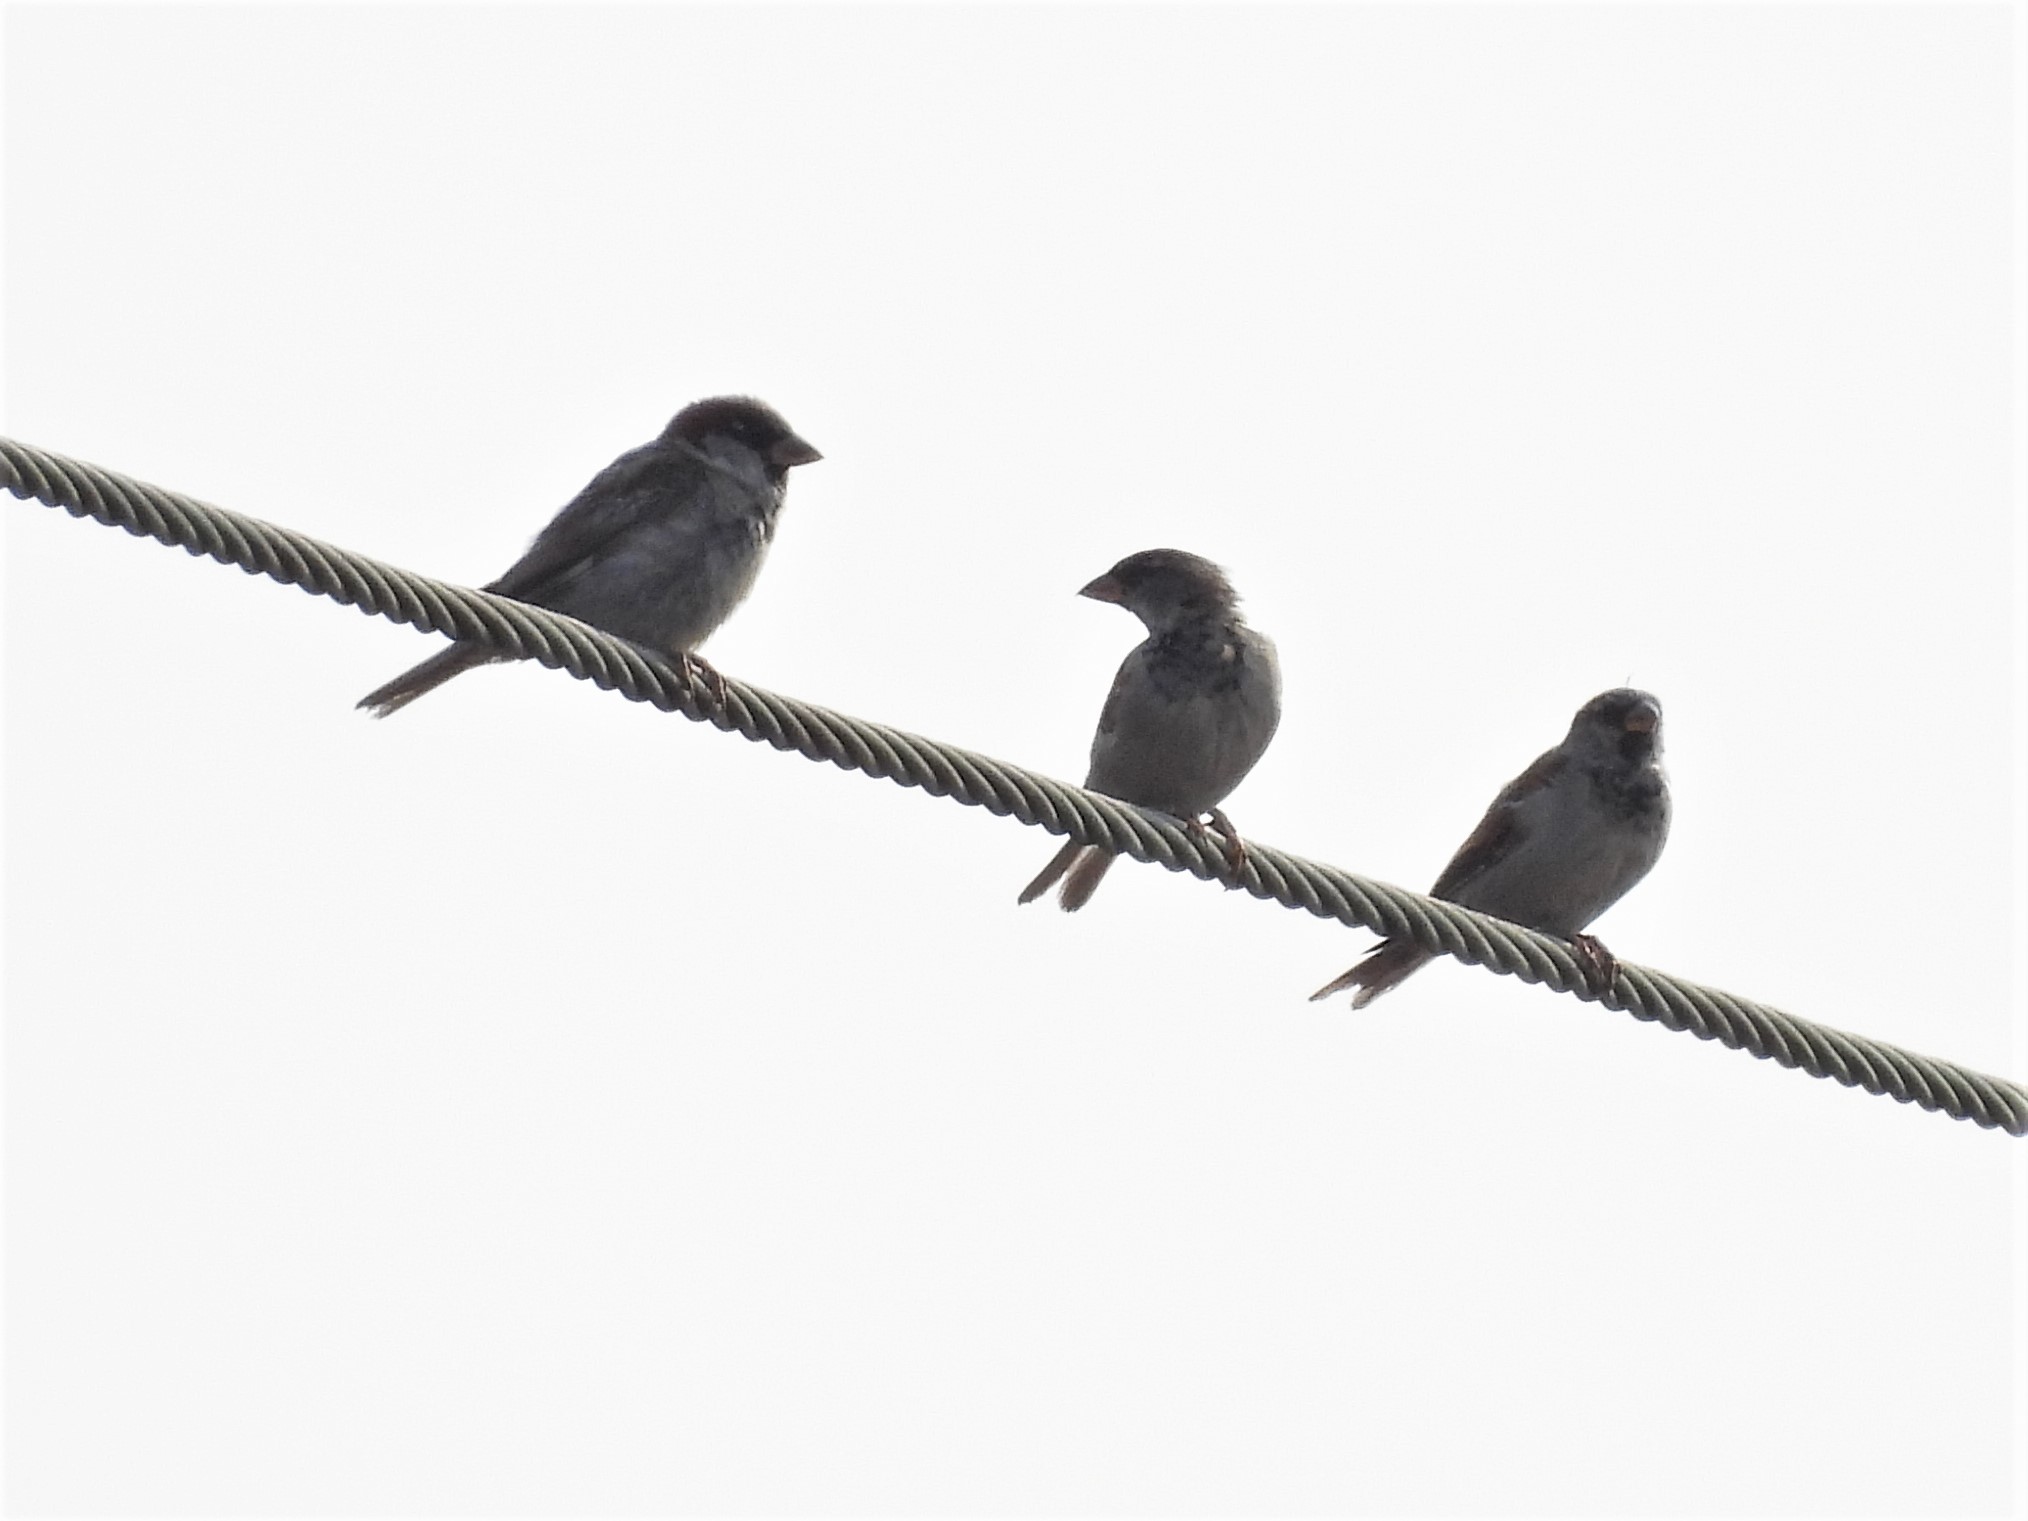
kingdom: Animalia
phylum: Chordata
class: Aves
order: Passeriformes
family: Passeridae
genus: Passer
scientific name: Passer domesticus
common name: House sparrow
